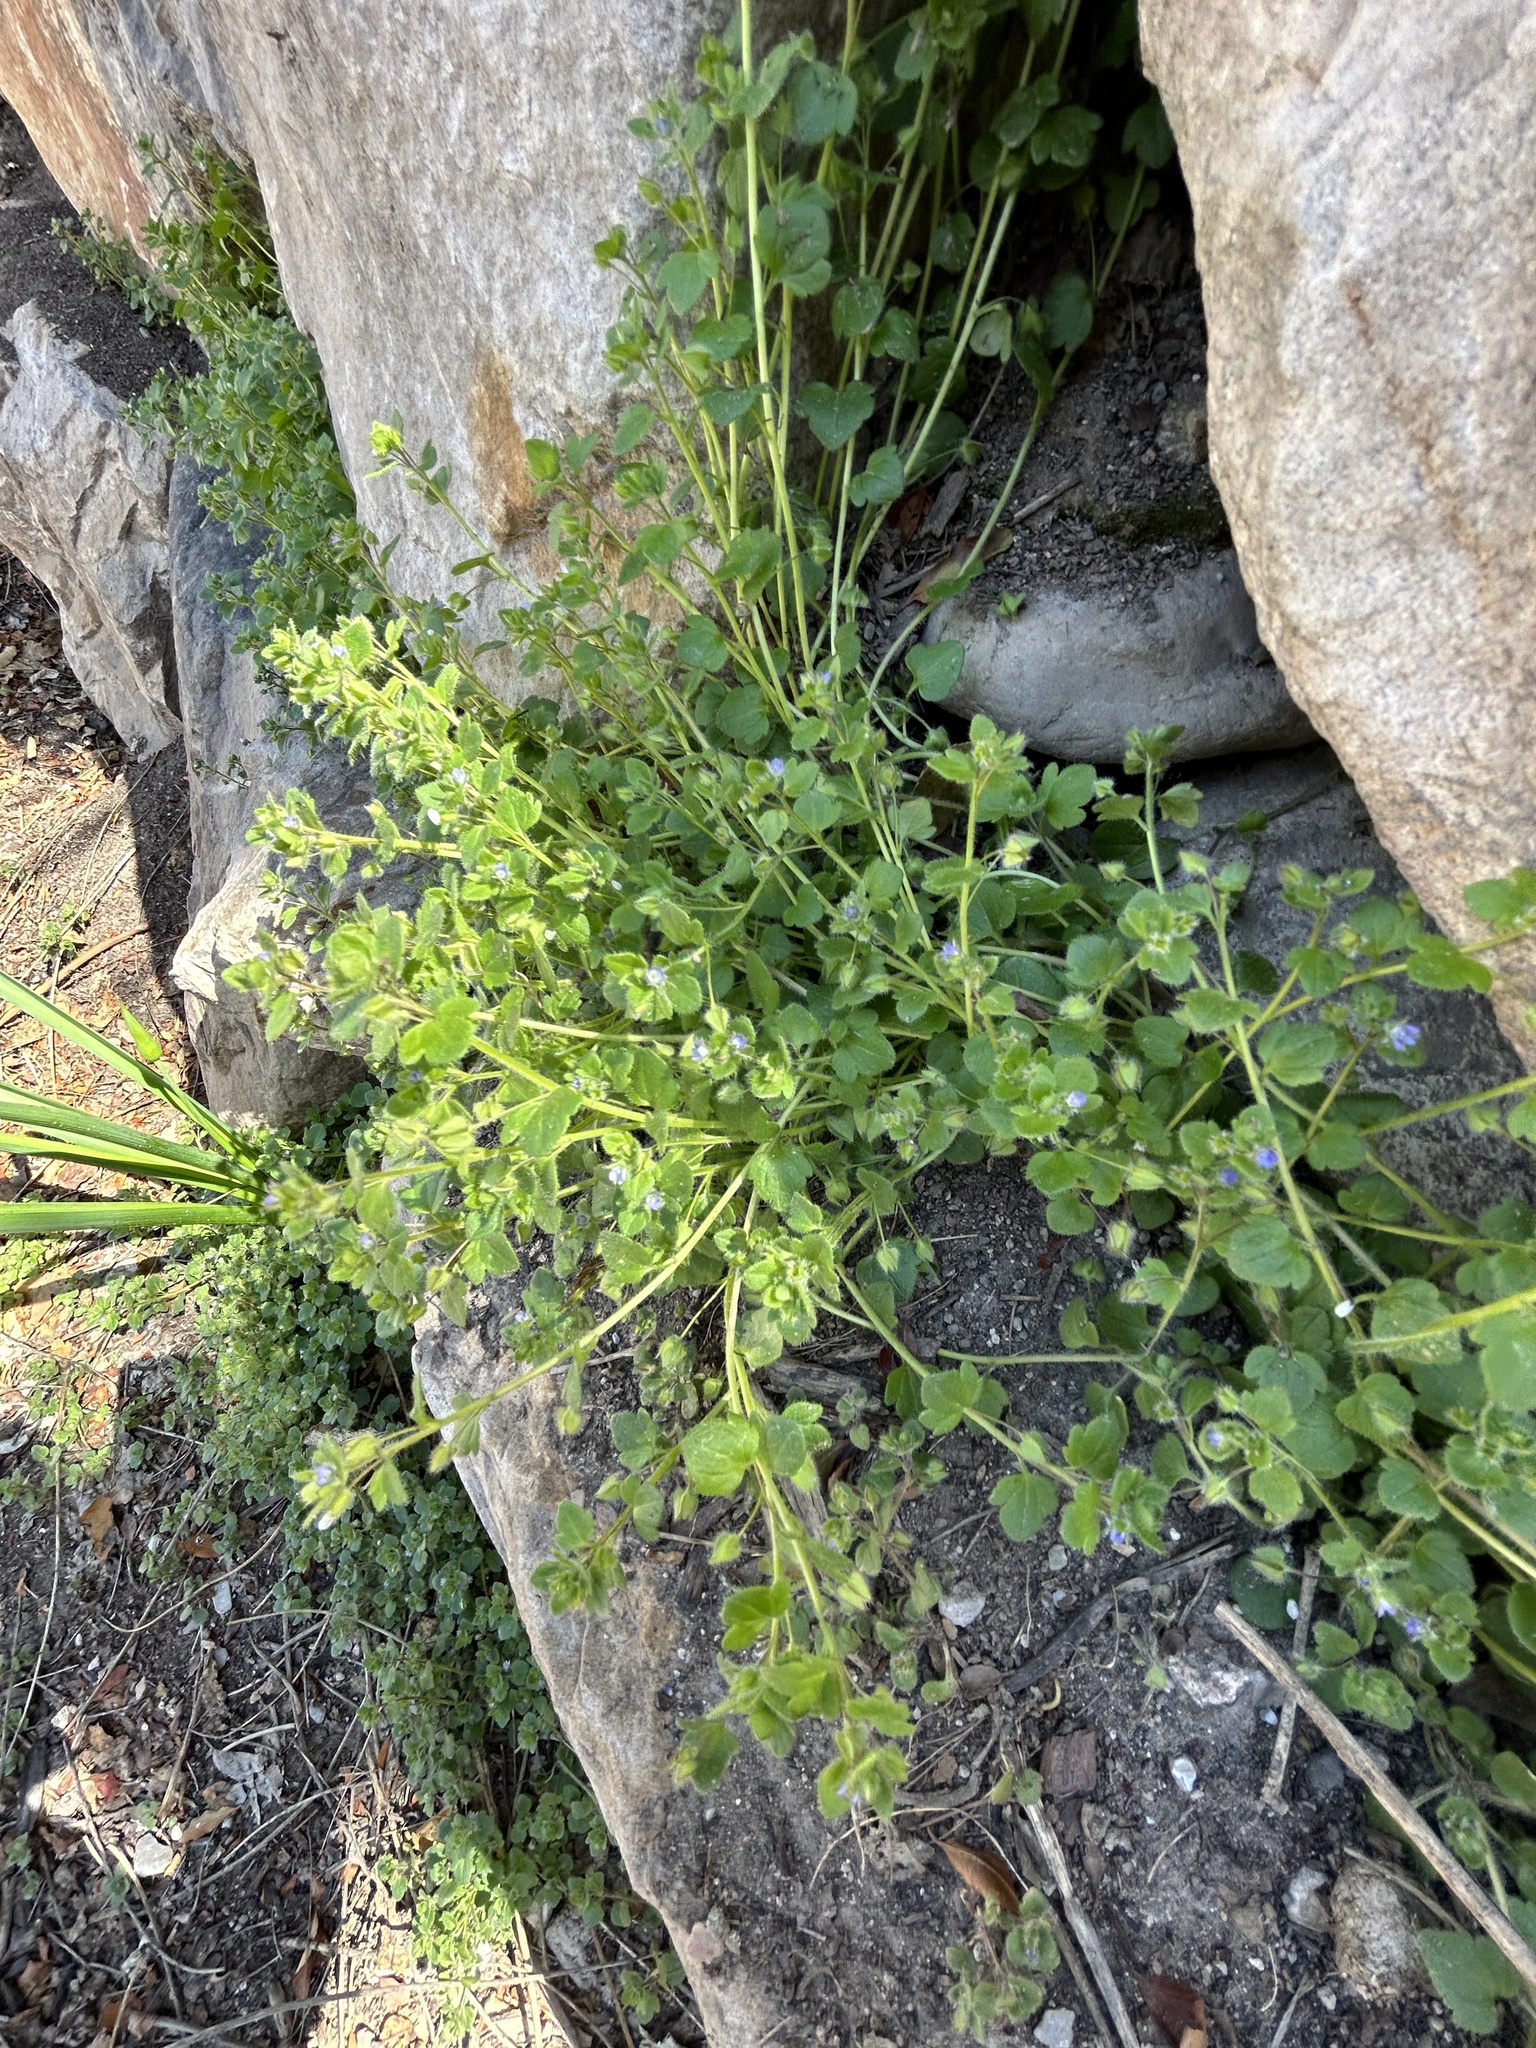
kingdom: Plantae
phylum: Tracheophyta
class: Magnoliopsida
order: Lamiales
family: Plantaginaceae
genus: Veronica
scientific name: Veronica hederifolia
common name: Ivy-leaved speedwell
